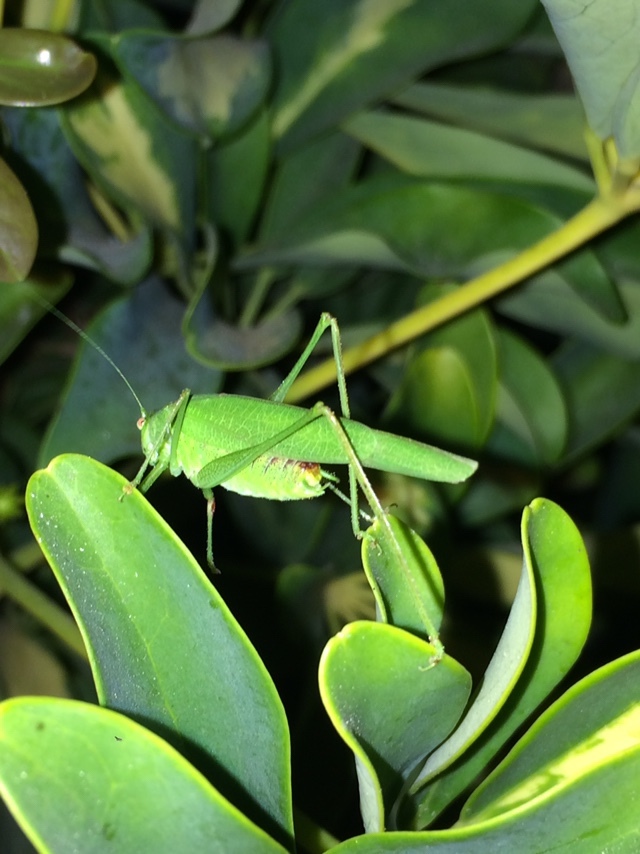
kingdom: Animalia
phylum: Arthropoda
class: Insecta
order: Orthoptera
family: Tettigoniidae
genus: Phaneroptera
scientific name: Phaneroptera nana
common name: Southern sickle bush-cricket
